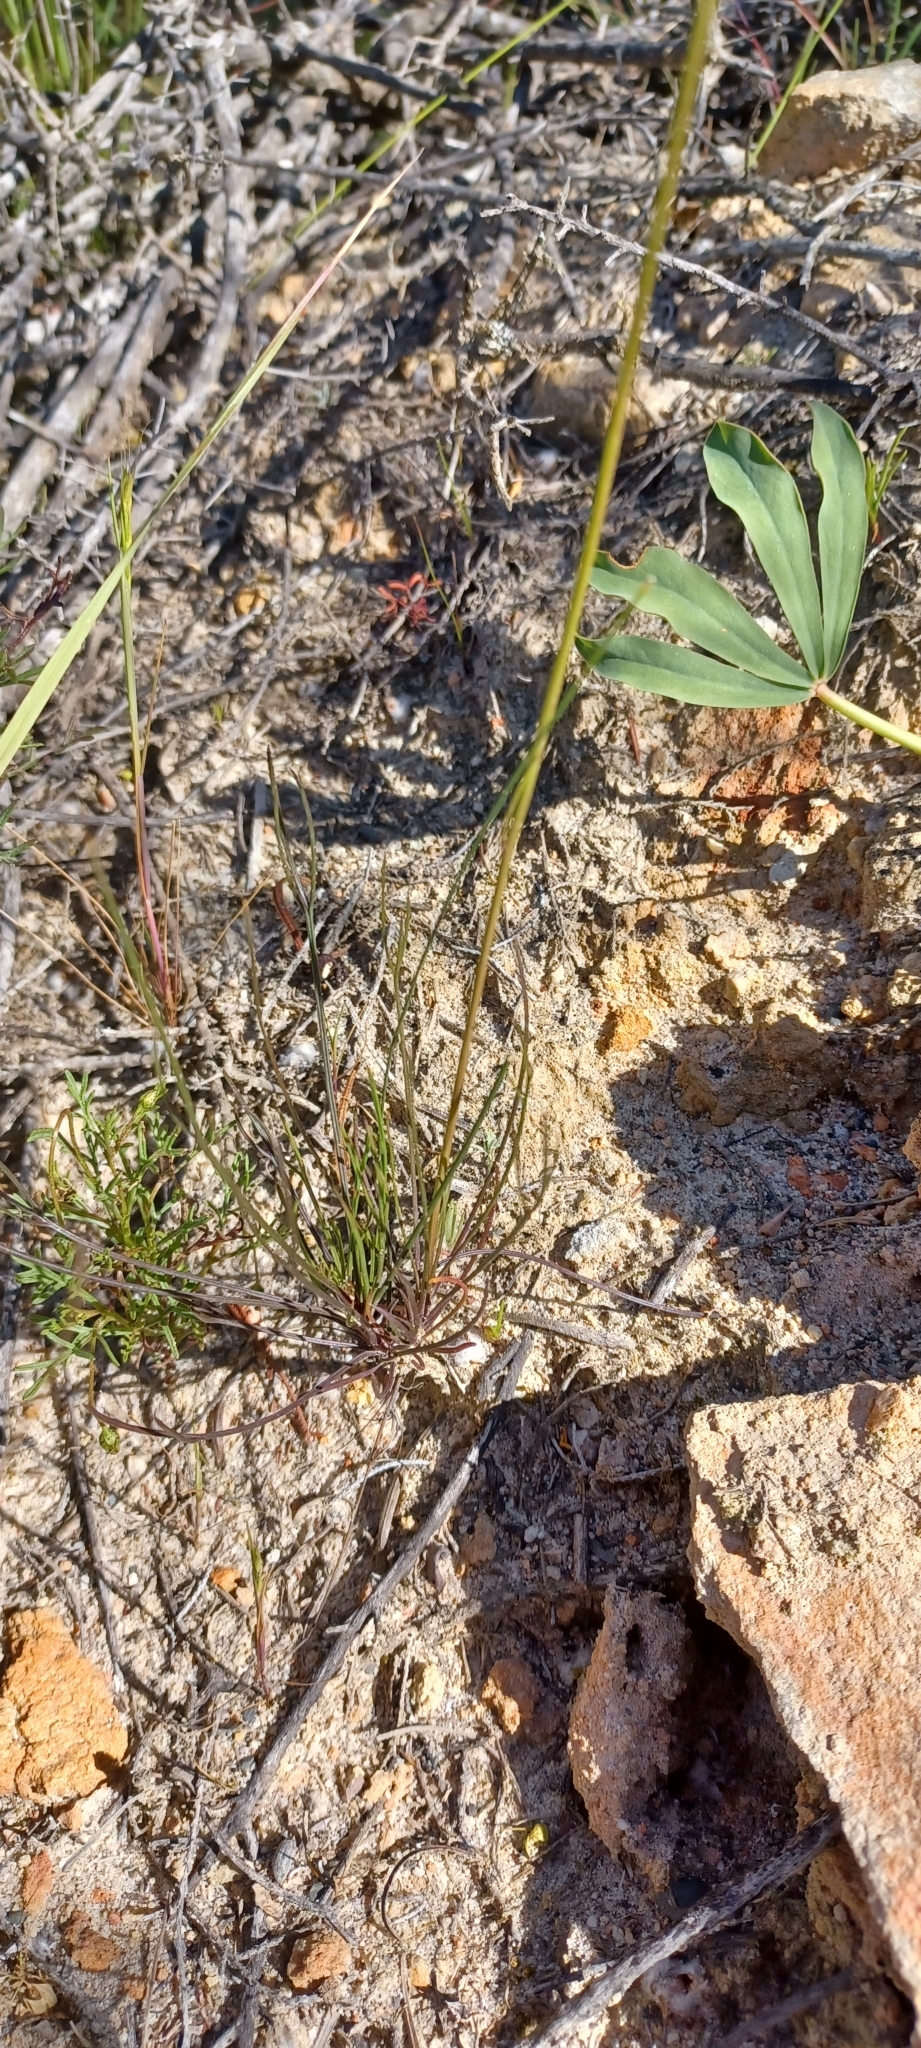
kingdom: Plantae
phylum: Tracheophyta
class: Magnoliopsida
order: Brassicales
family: Brassicaceae
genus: Heliophila
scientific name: Heliophila carnosa
